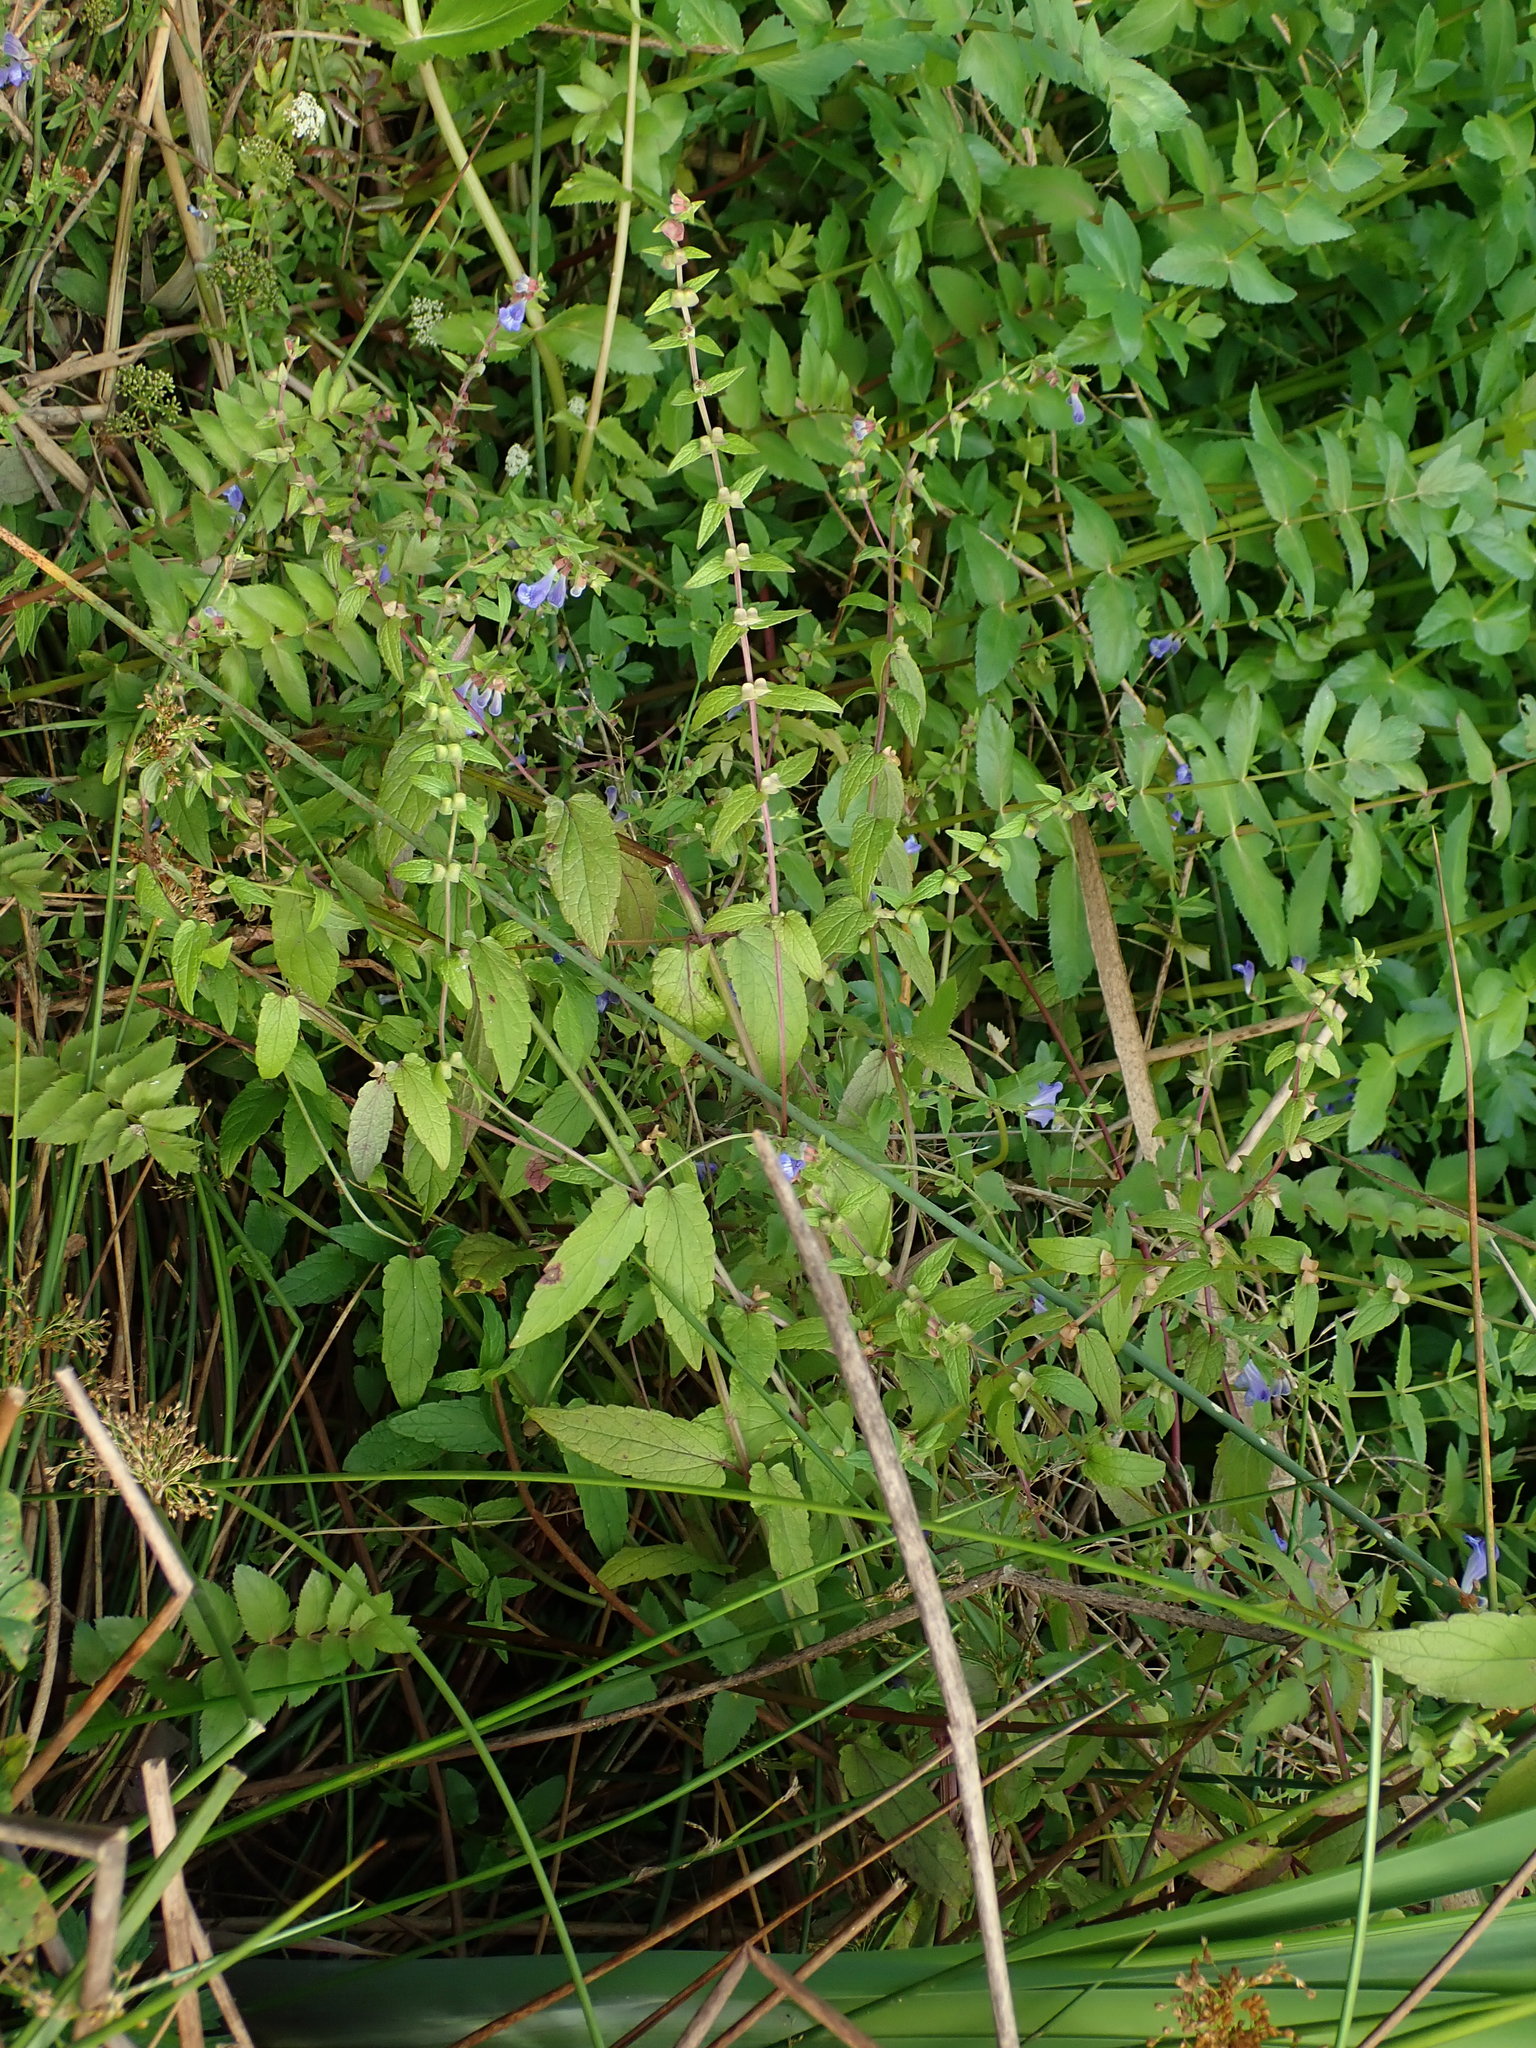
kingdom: Plantae
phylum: Tracheophyta
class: Magnoliopsida
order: Lamiales
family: Lamiaceae
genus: Scutellaria
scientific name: Scutellaria galericulata
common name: Skullcap
